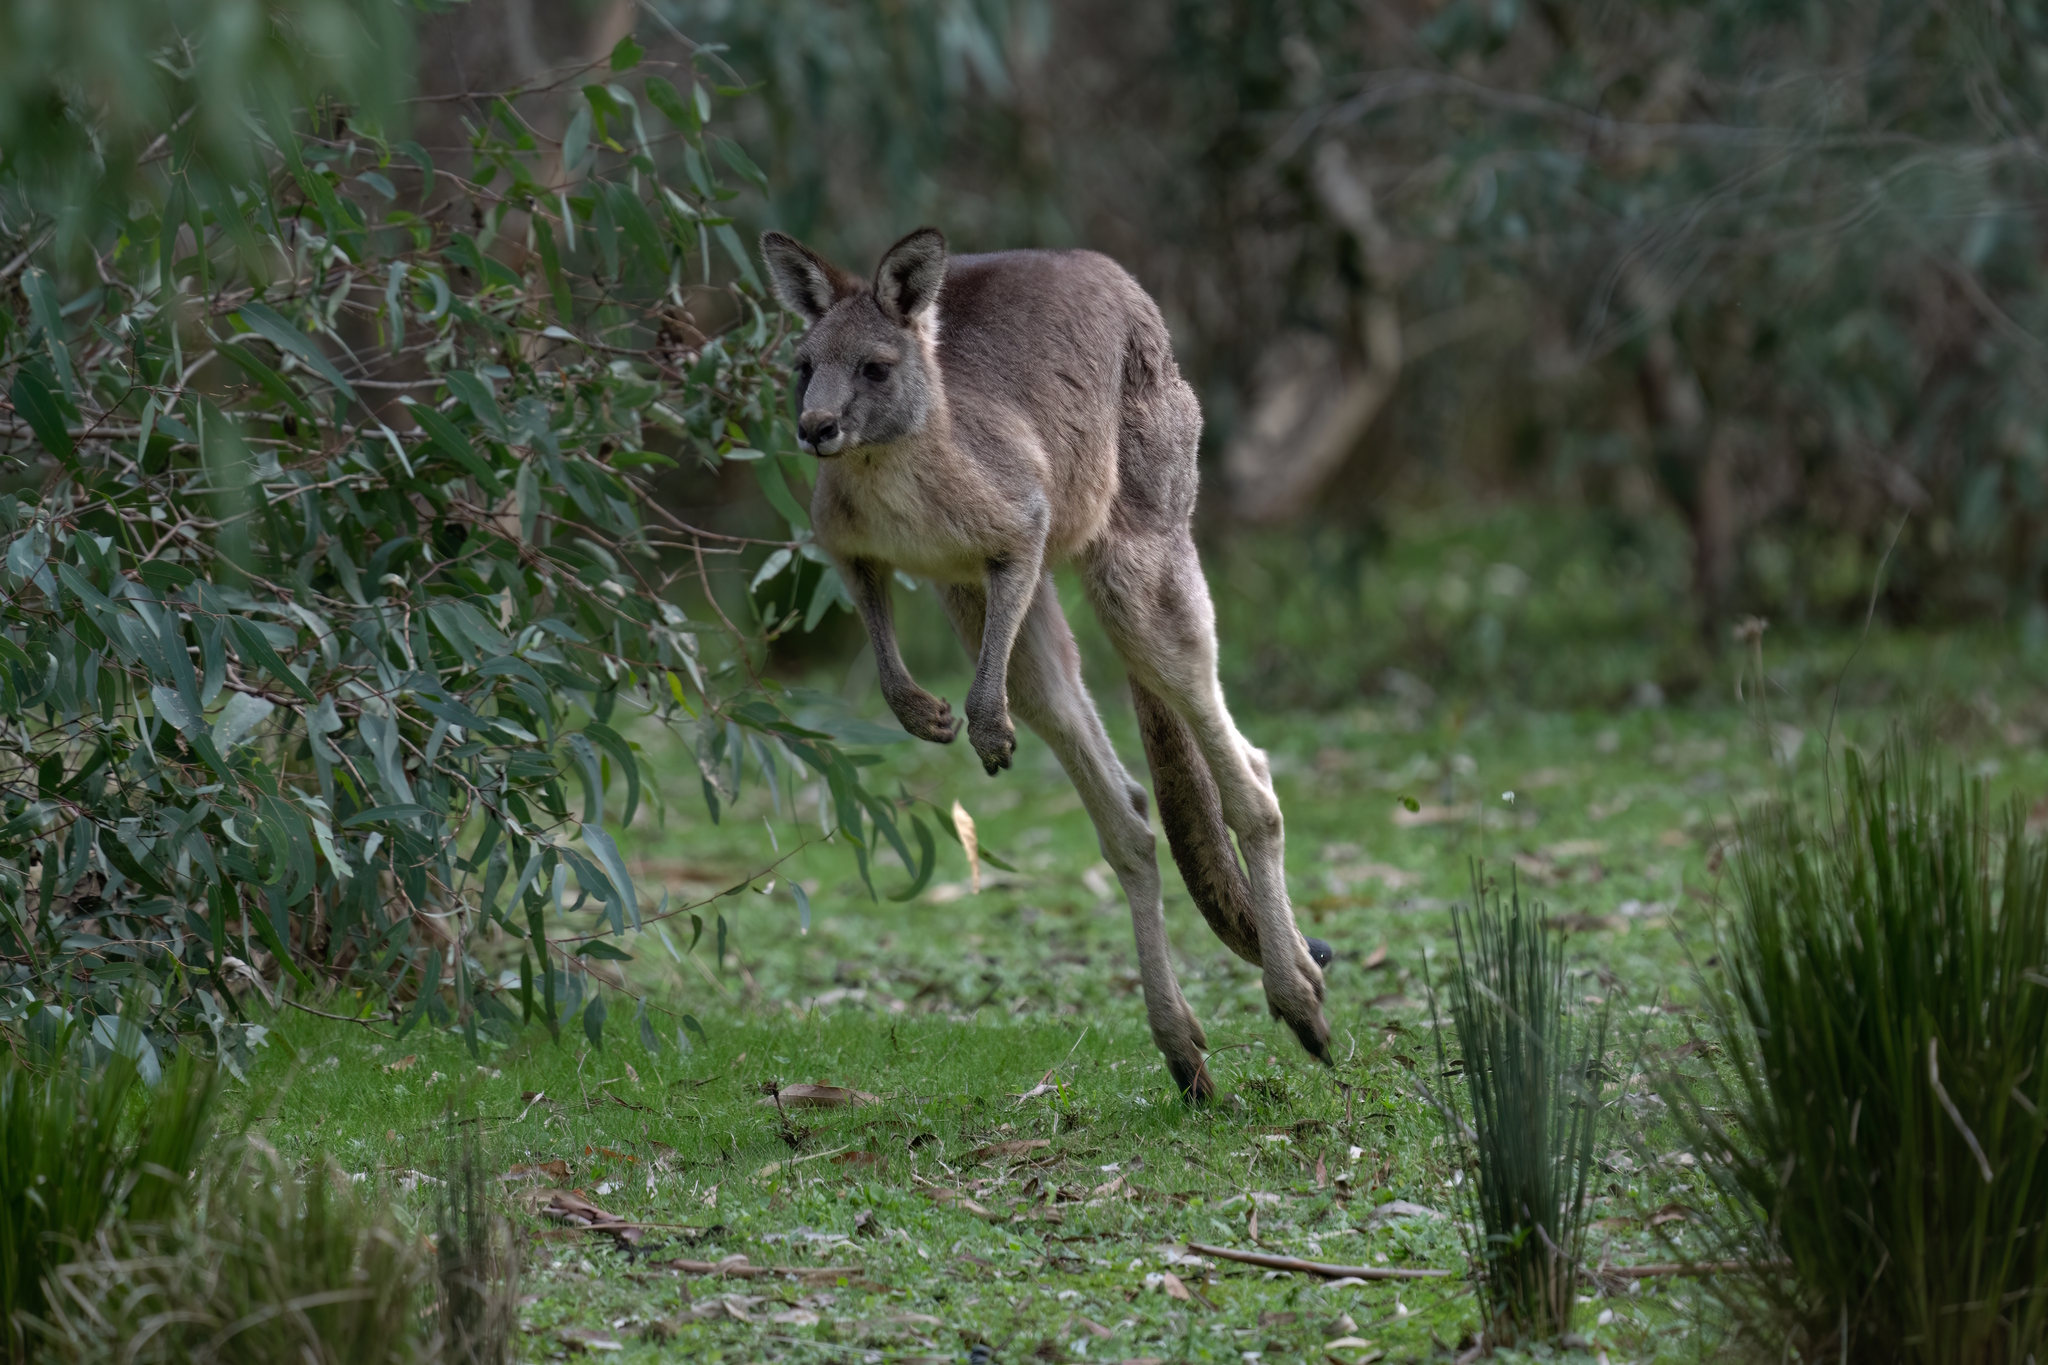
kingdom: Animalia
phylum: Chordata
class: Mammalia
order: Diprotodontia
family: Macropodidae
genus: Macropus
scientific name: Macropus giganteus
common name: Eastern grey kangaroo
